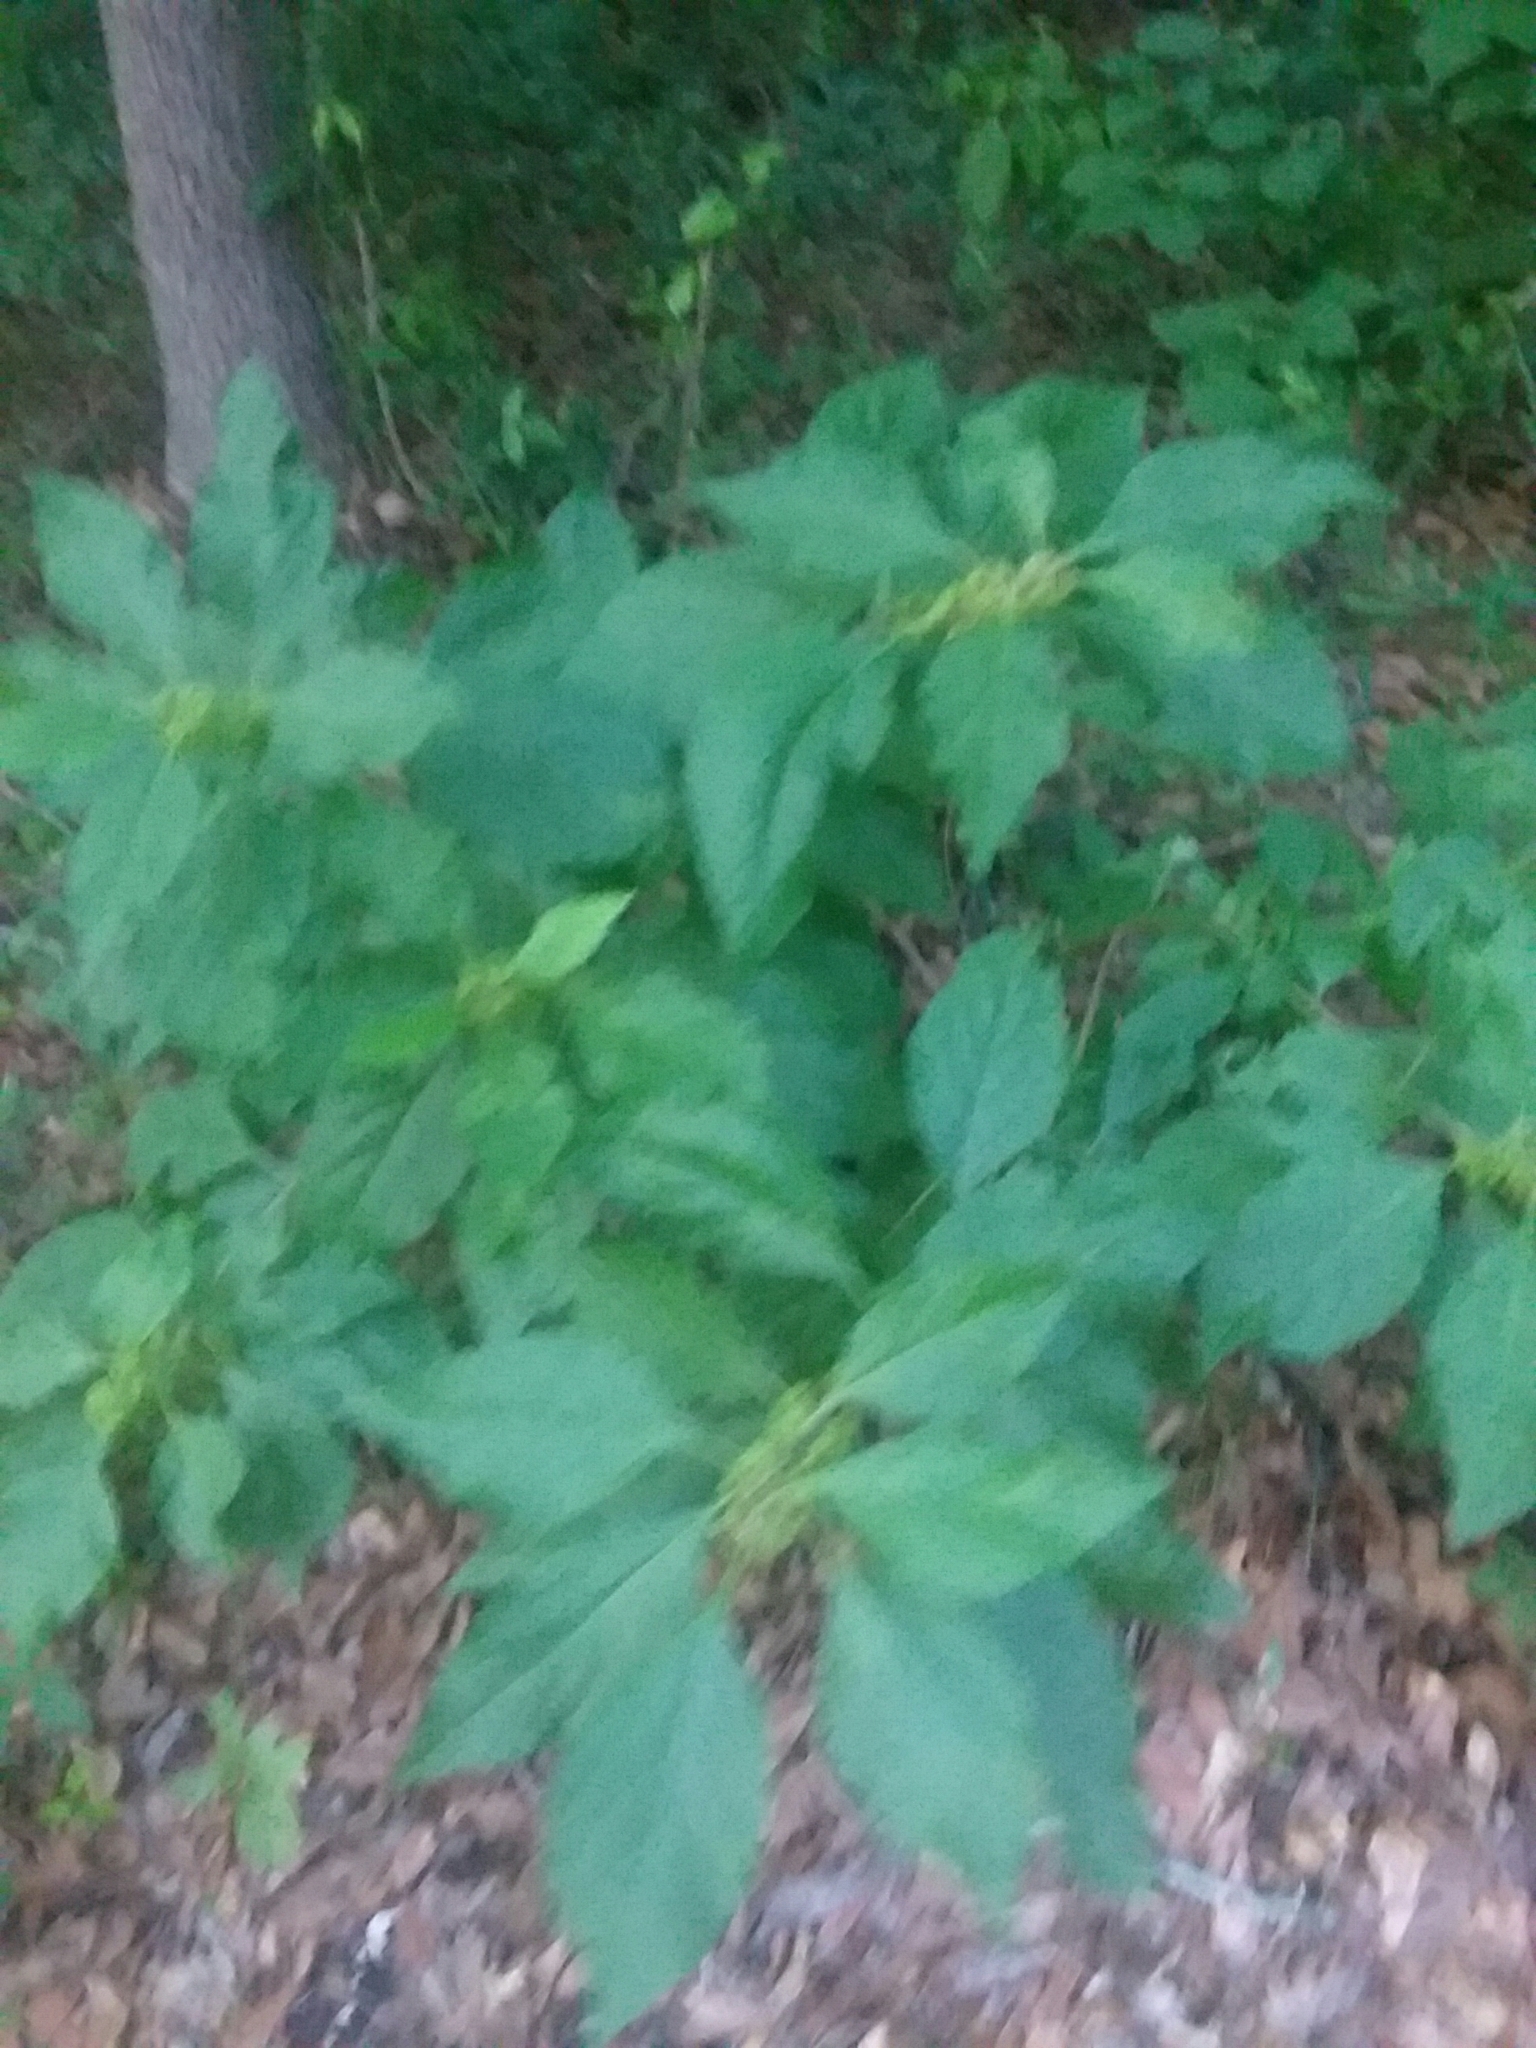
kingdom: Plantae
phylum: Tracheophyta
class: Magnoliopsida
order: Lamiales
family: Lamiaceae
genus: Callicarpa
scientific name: Callicarpa americana
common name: American beautyberry
